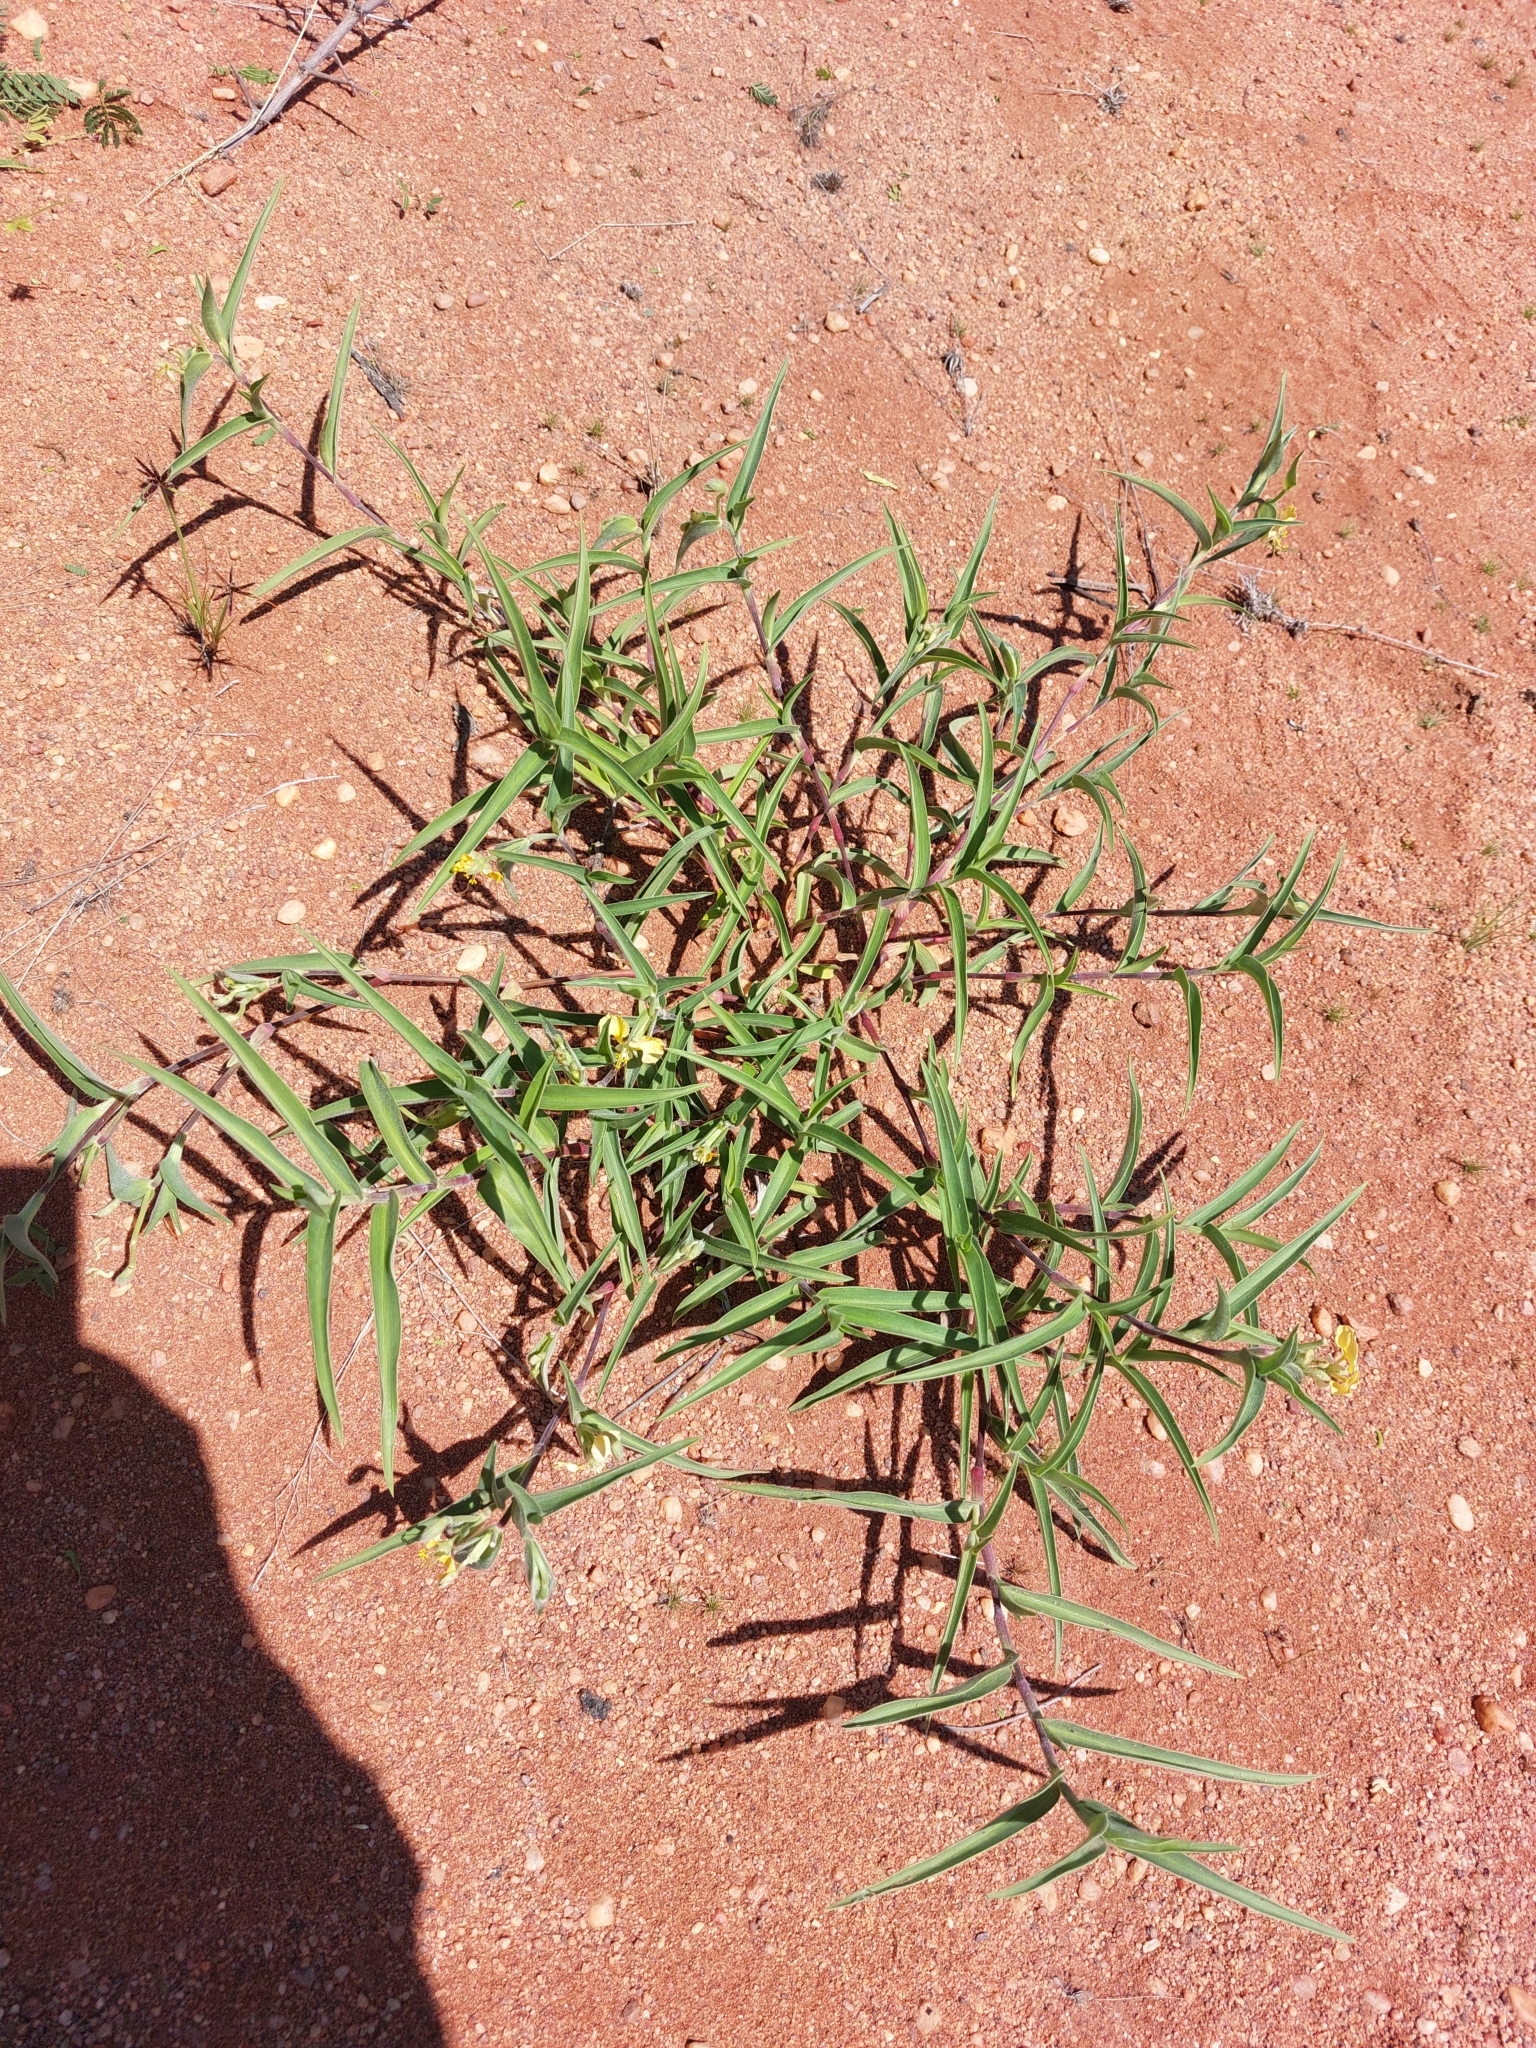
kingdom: Plantae
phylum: Tracheophyta
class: Liliopsida
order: Commelinales
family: Commelinaceae
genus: Commelina
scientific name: Commelina africana
